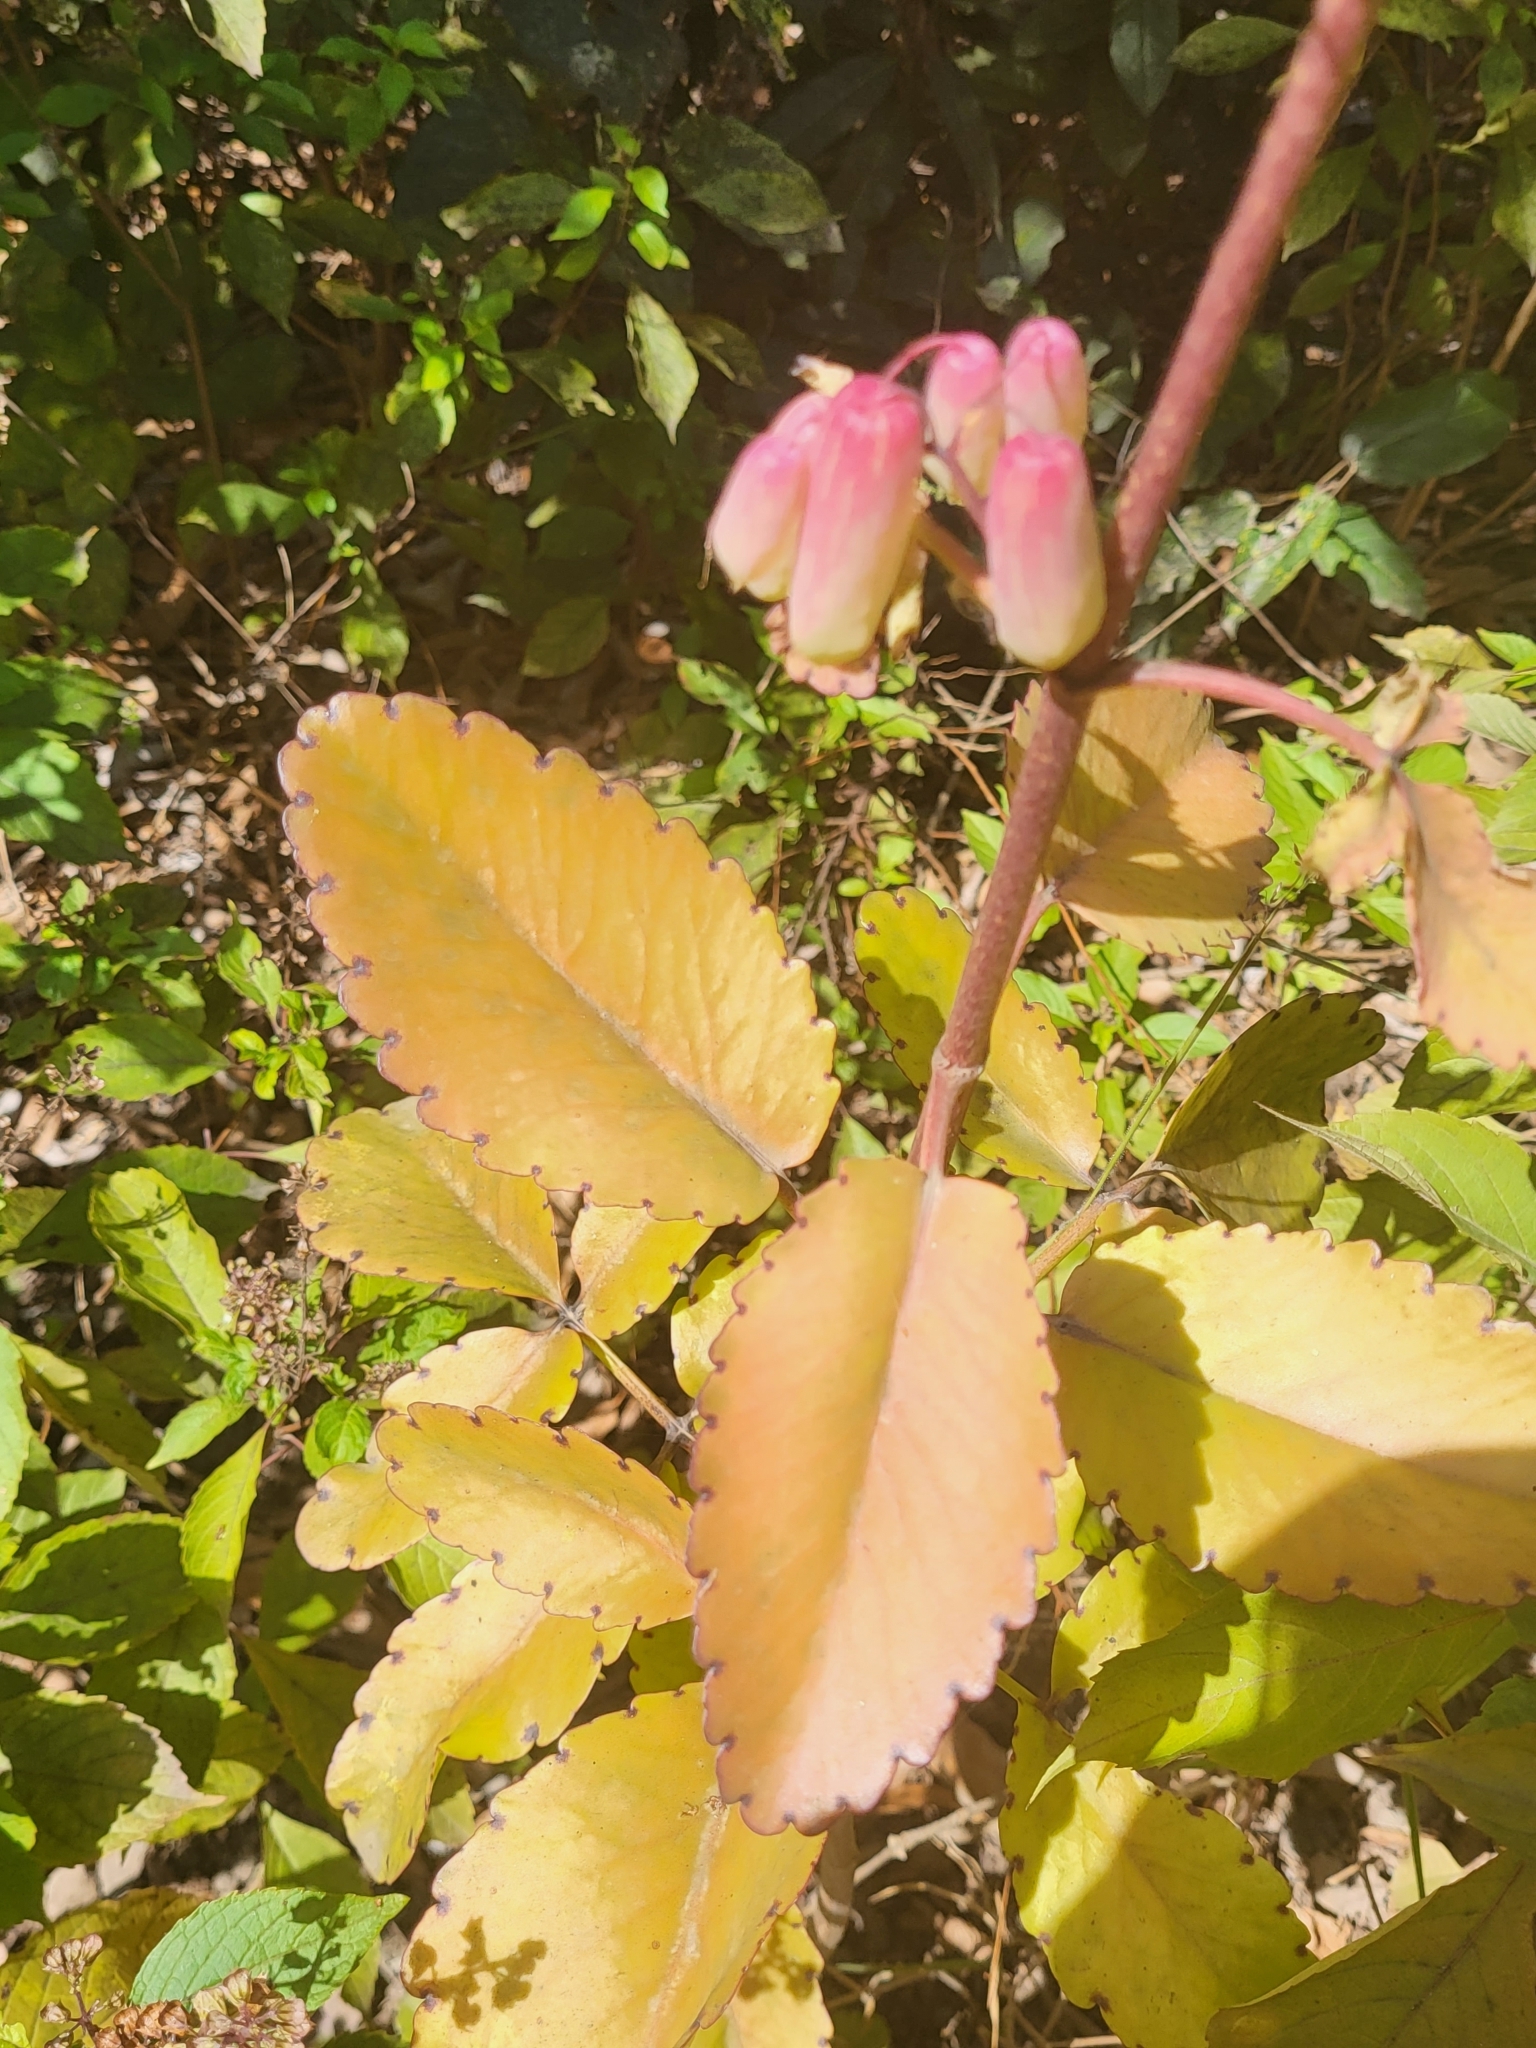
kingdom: Plantae
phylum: Tracheophyta
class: Magnoliopsida
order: Saxifragales
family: Crassulaceae
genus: Kalanchoe
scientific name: Kalanchoe pinnata
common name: Cathedral bells
